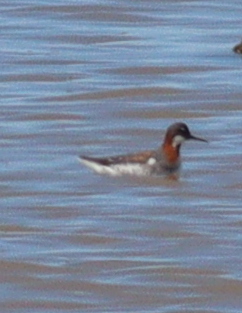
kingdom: Animalia
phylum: Chordata
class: Aves
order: Charadriiformes
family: Scolopacidae
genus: Phalaropus
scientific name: Phalaropus lobatus
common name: Red-necked phalarope
